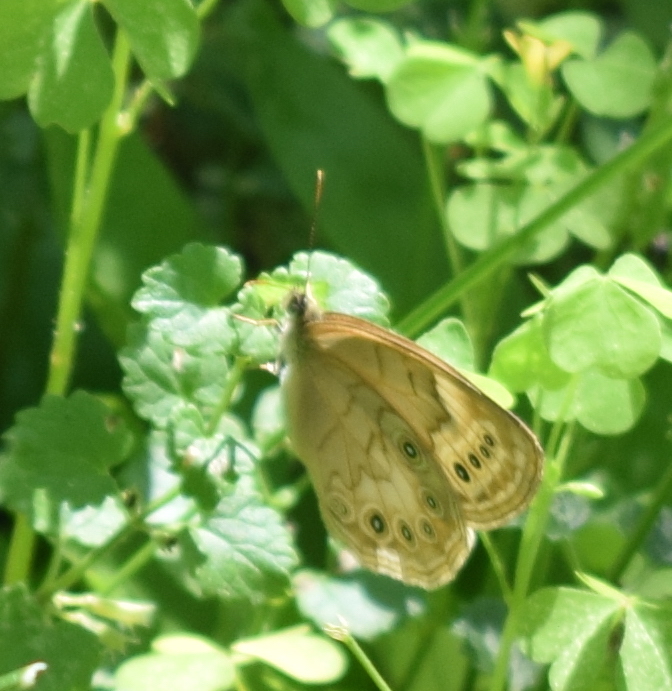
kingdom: Animalia
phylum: Arthropoda
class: Insecta
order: Lepidoptera
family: Nymphalidae
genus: Lethe
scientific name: Lethe eurydice
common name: Eyed brown
